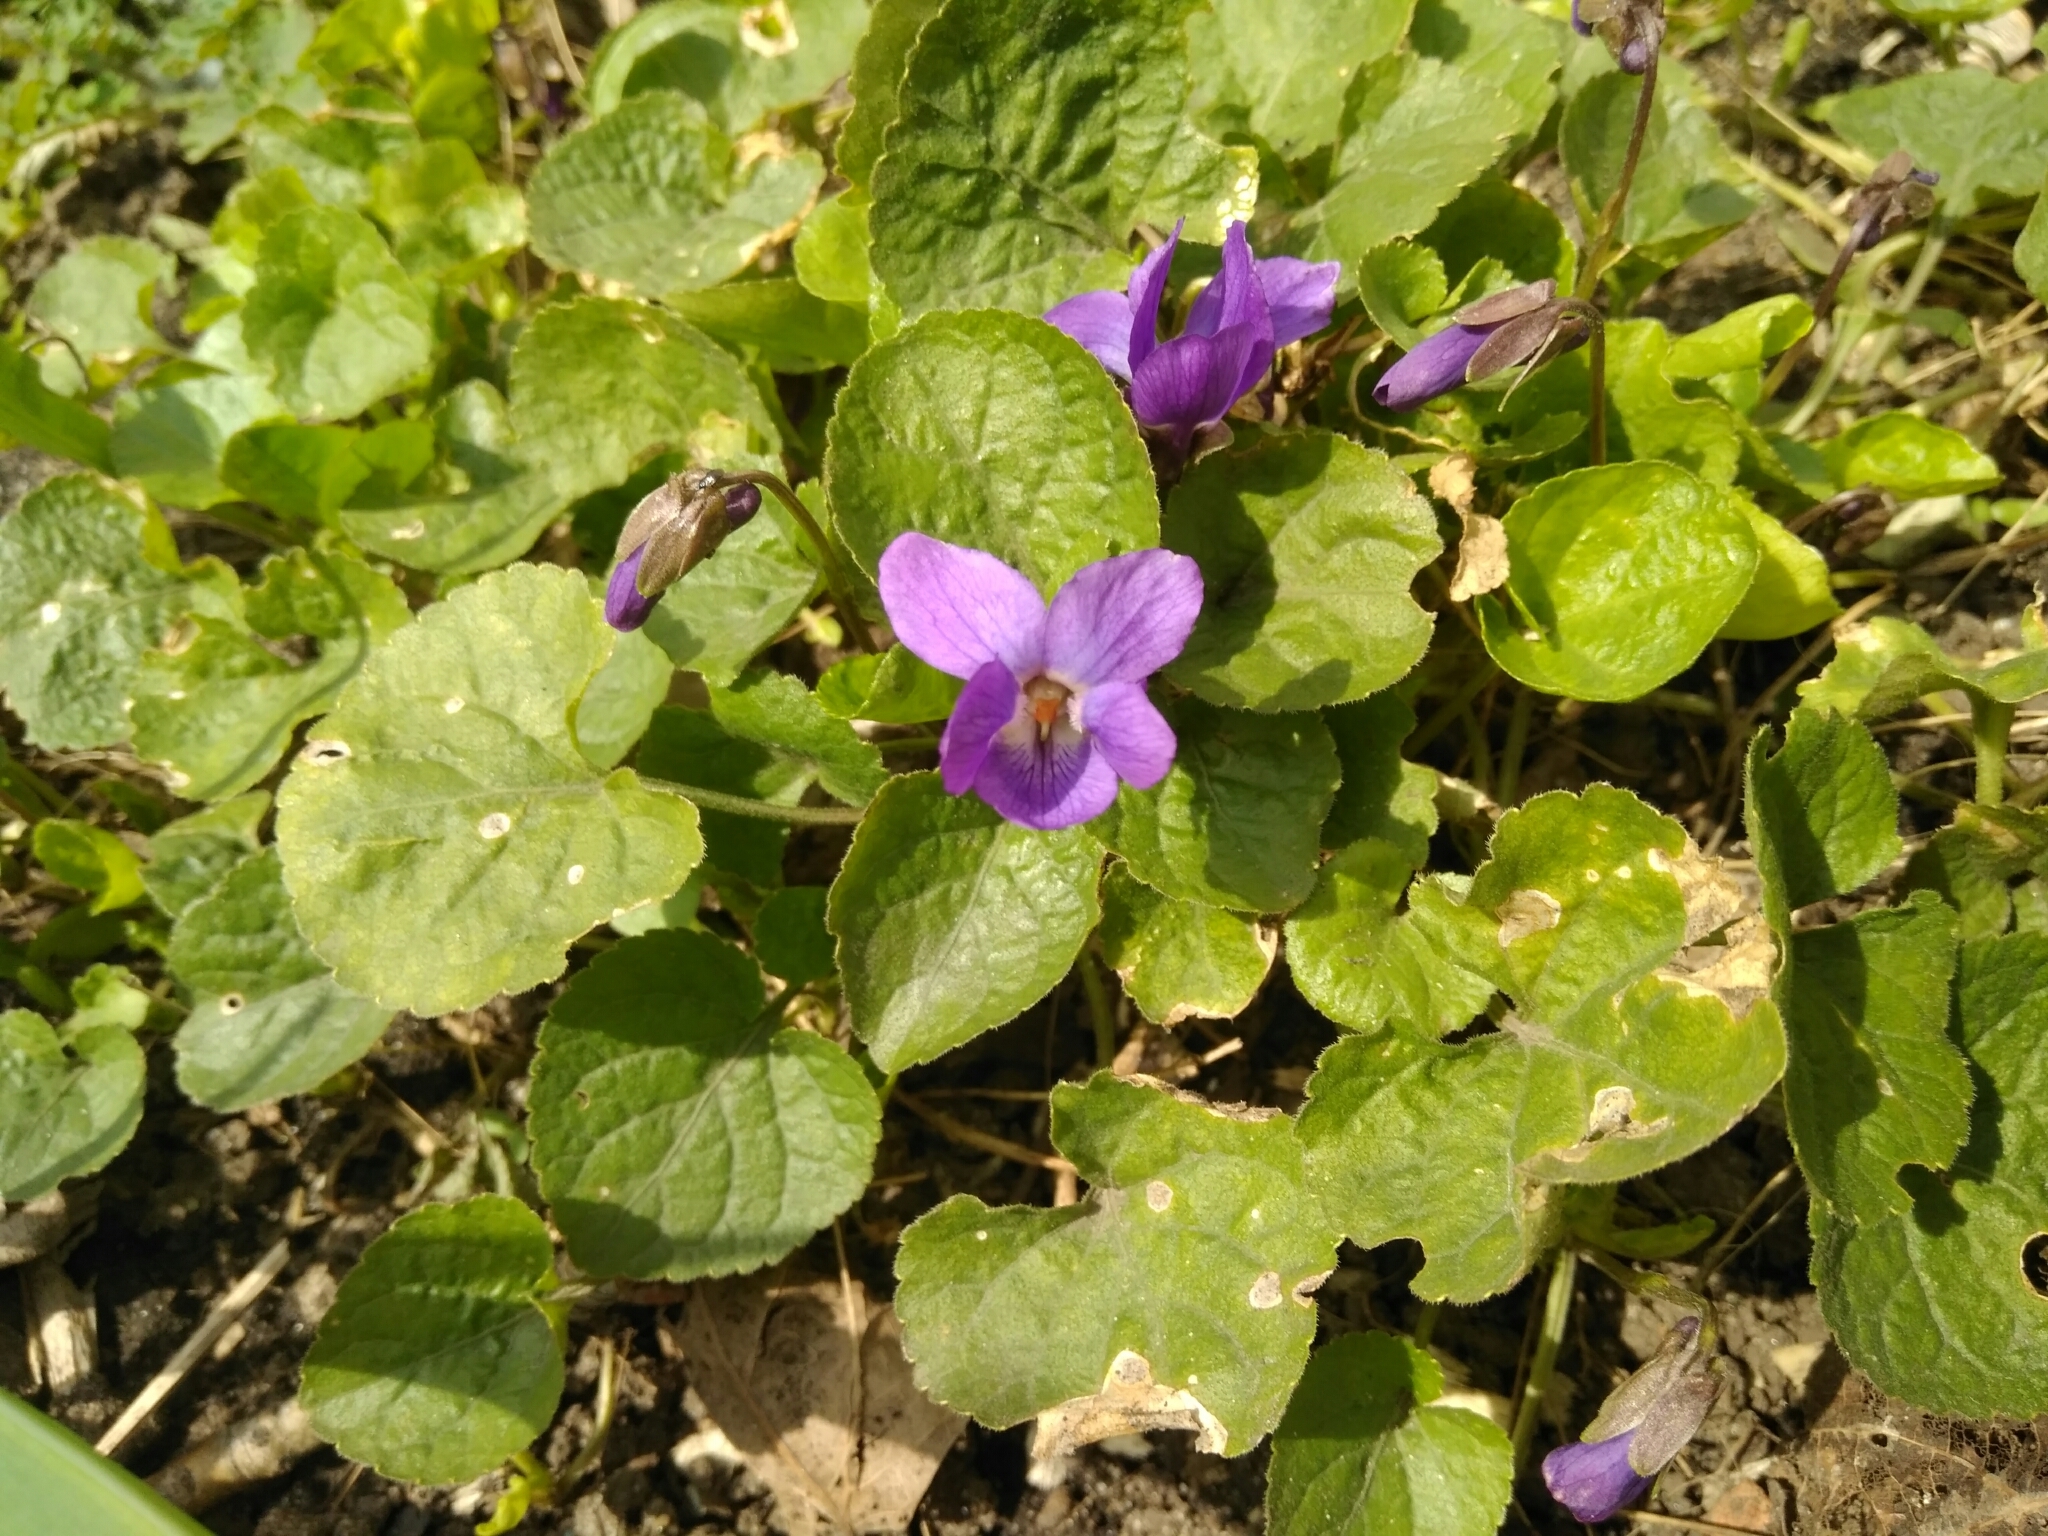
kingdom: Plantae
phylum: Tracheophyta
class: Magnoliopsida
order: Malpighiales
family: Violaceae
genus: Viola
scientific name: Viola odorata
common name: Sweet violet
